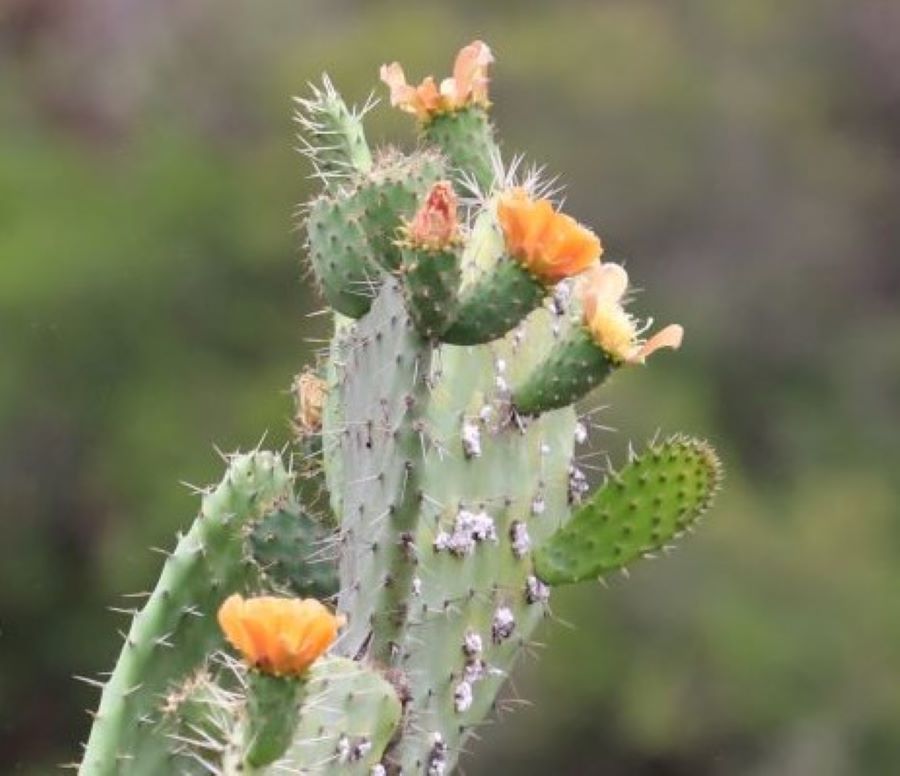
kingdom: Plantae
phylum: Tracheophyta
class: Magnoliopsida
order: Caryophyllales
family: Cactaceae
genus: Opuntia
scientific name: Opuntia ficus-indica
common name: Barbary fig
